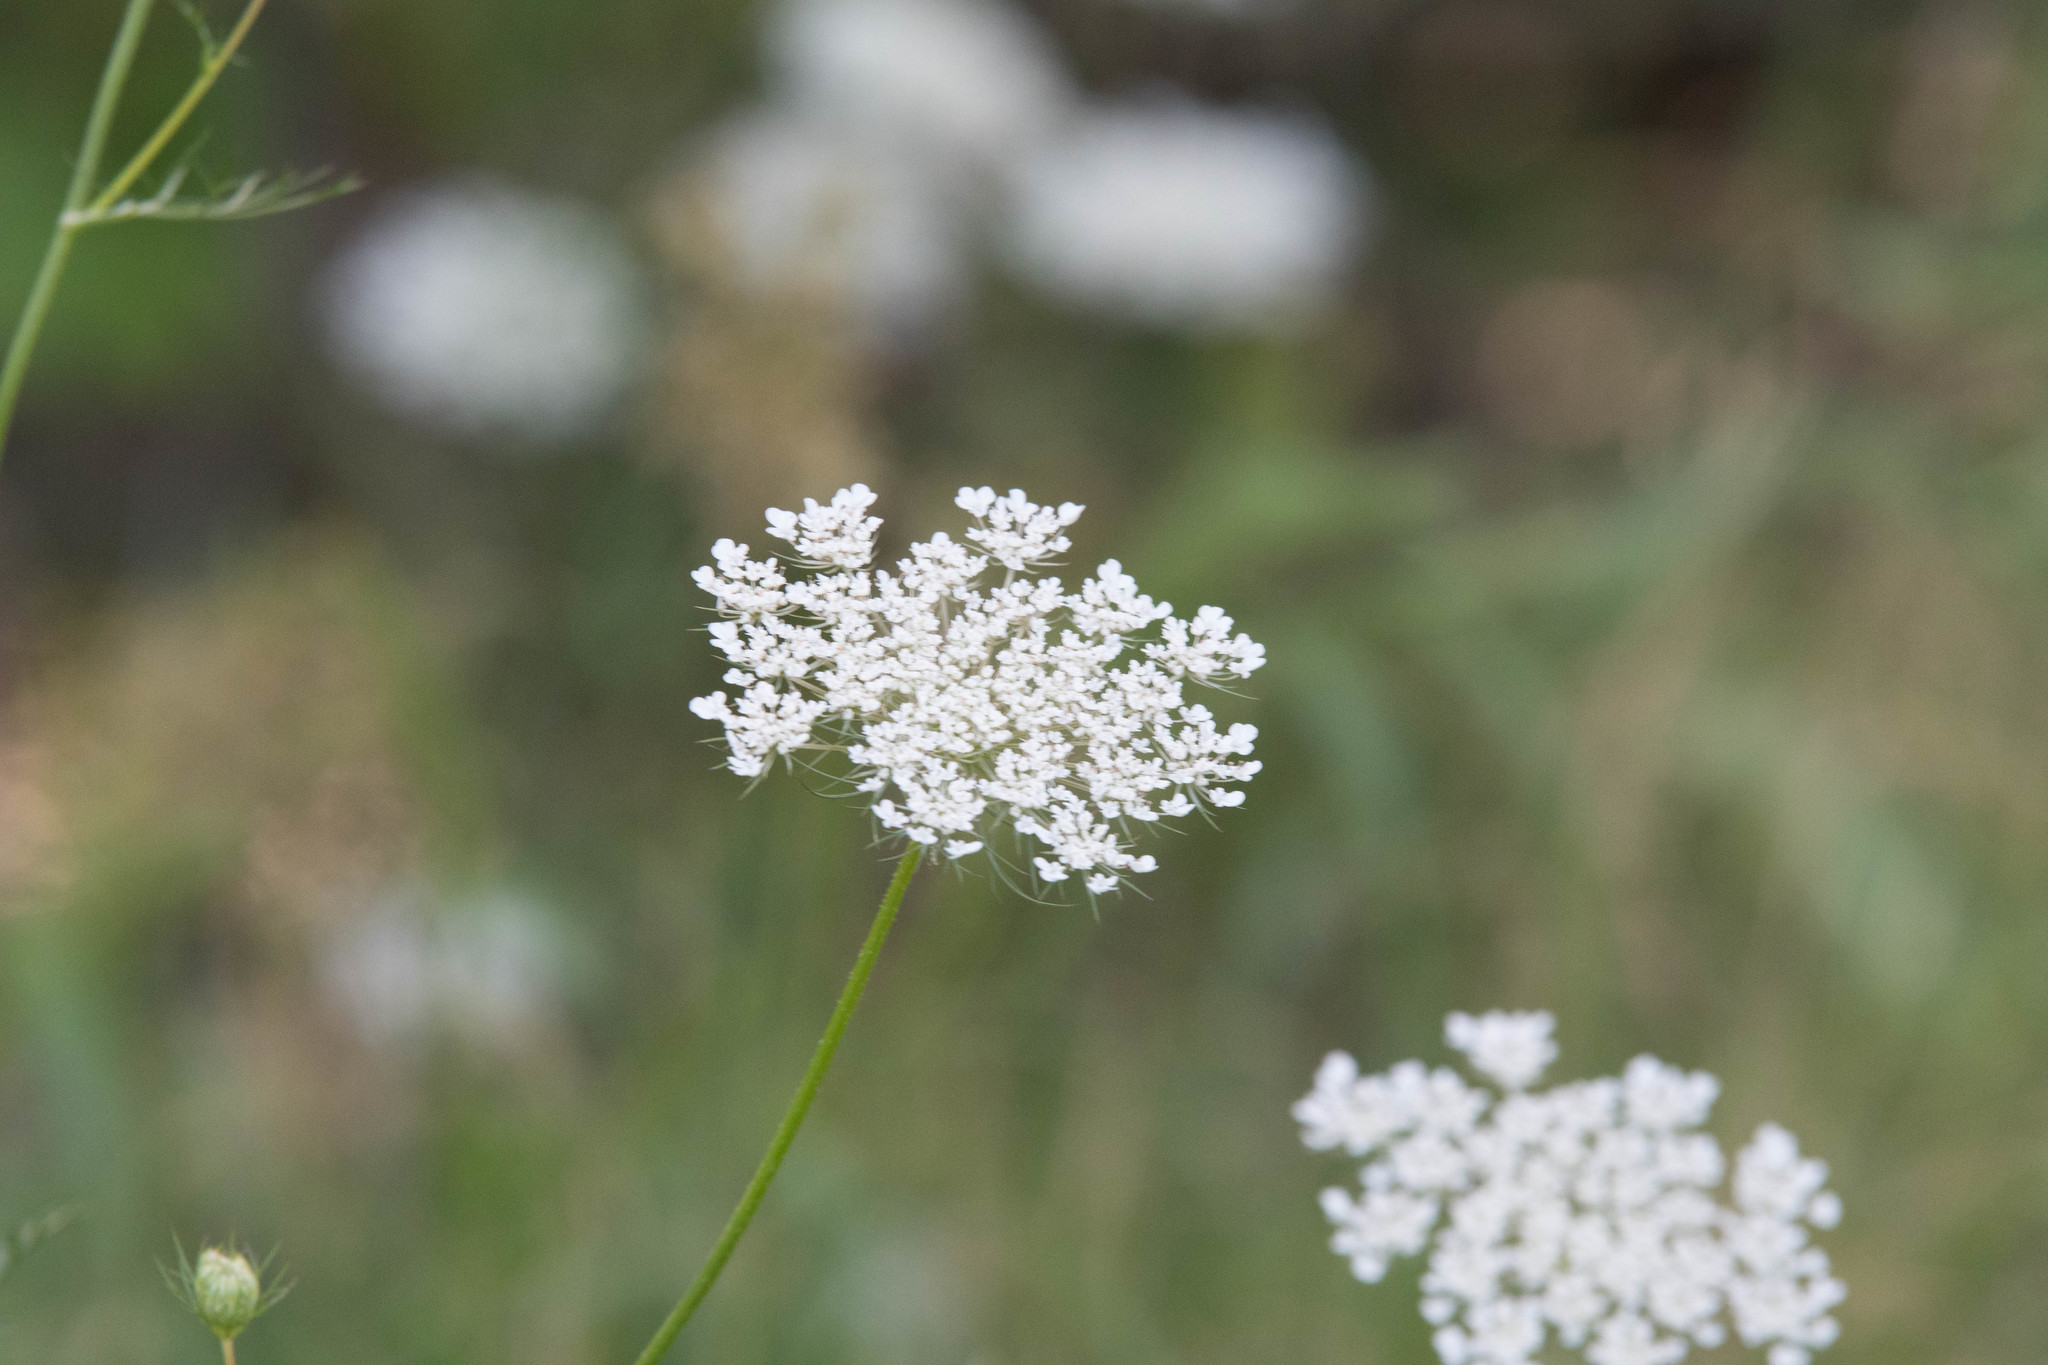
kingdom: Plantae
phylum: Tracheophyta
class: Magnoliopsida
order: Apiales
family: Apiaceae
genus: Daucus
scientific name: Daucus carota
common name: Wild carrot
